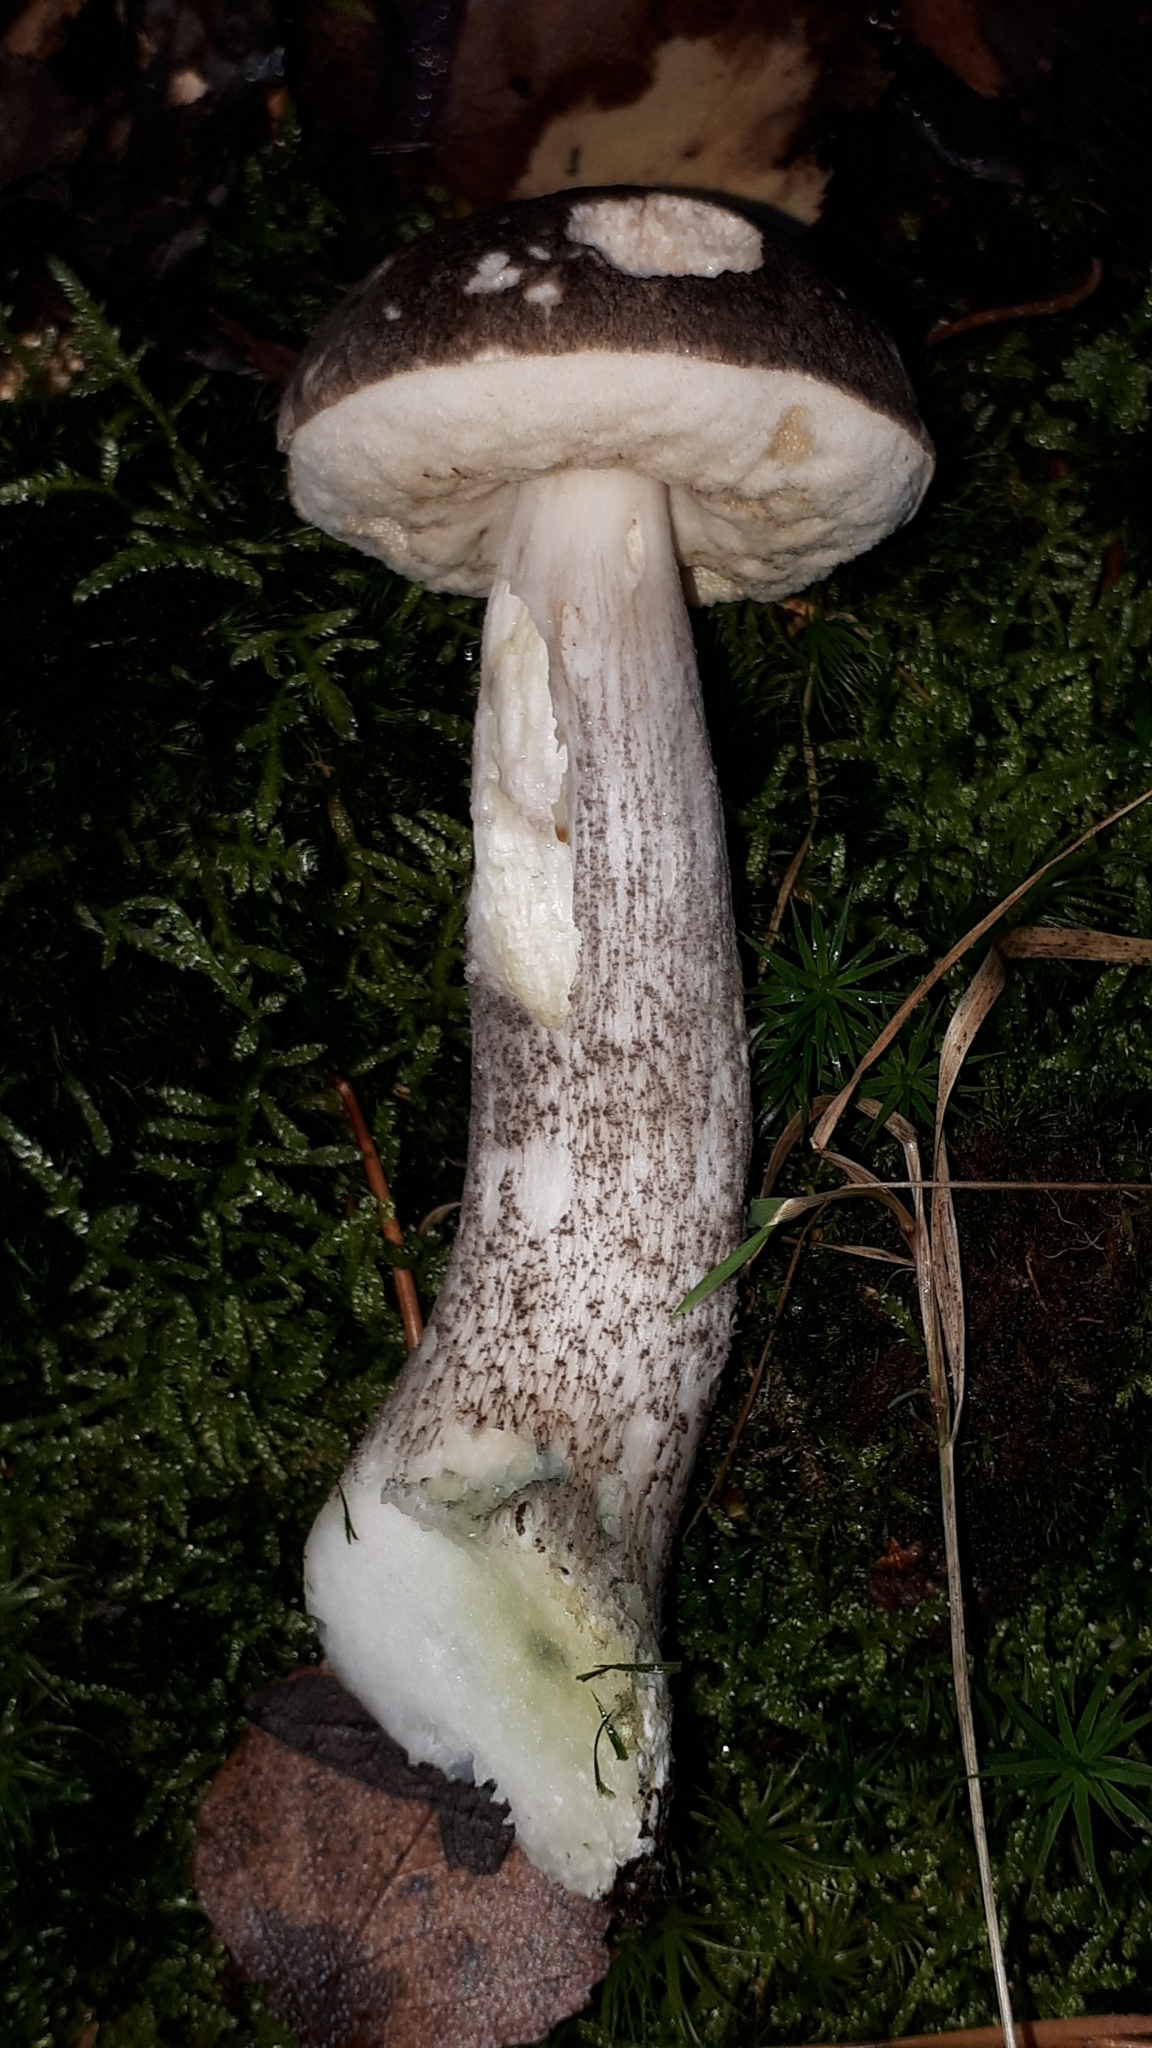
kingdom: Fungi
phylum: Basidiomycota
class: Agaricomycetes
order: Boletales
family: Boletaceae
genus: Leccinum
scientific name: Leccinum variicolor
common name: Mottled bolete
